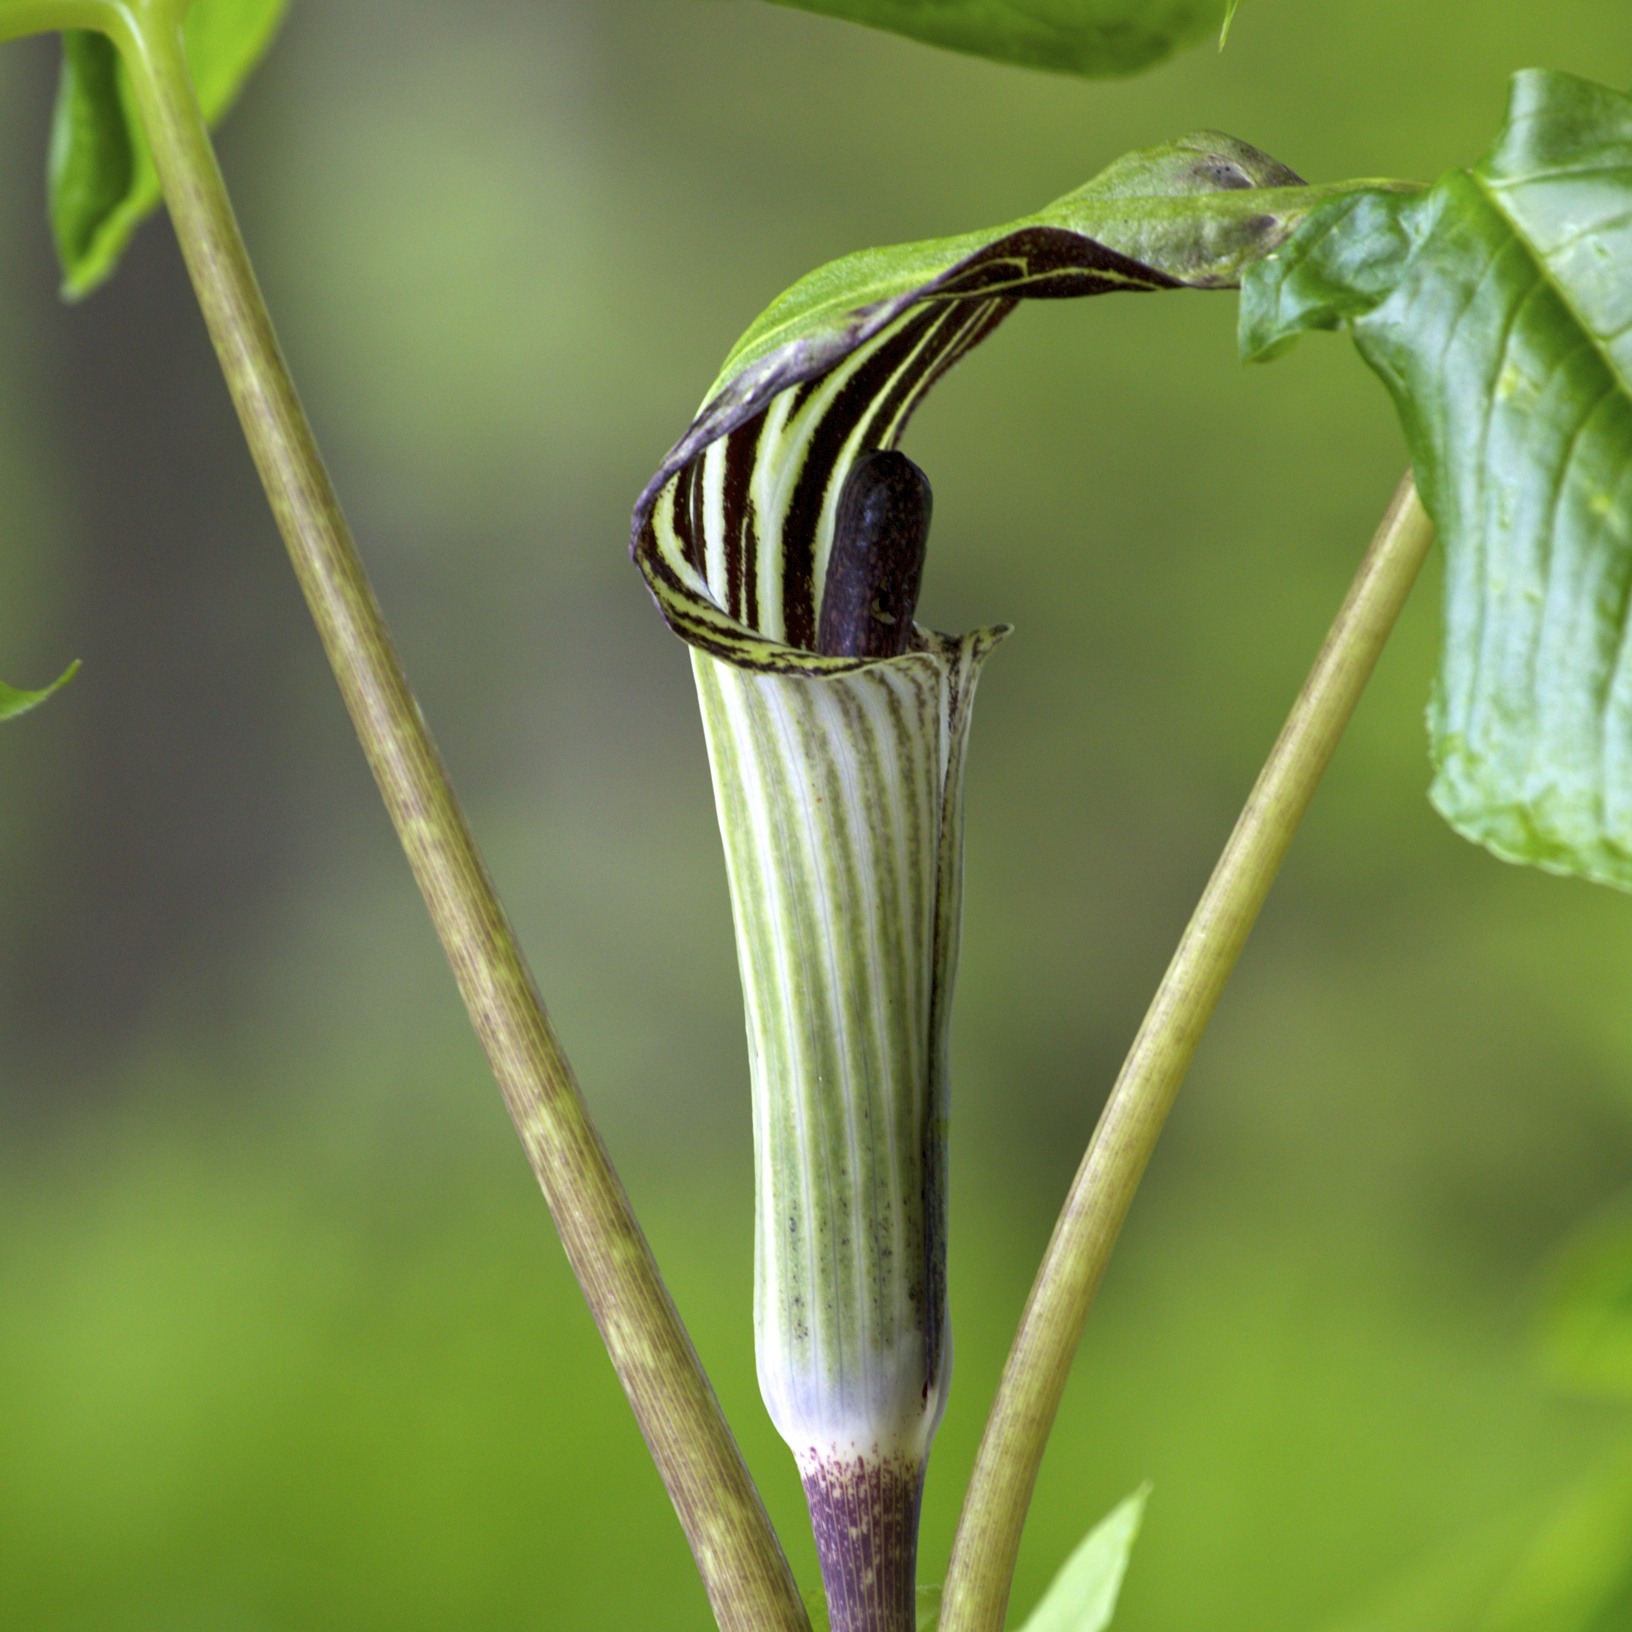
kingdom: Plantae
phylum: Tracheophyta
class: Liliopsida
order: Alismatales
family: Araceae
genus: Arisaema
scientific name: Arisaema triphyllum
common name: Jack-in-the-pulpit
